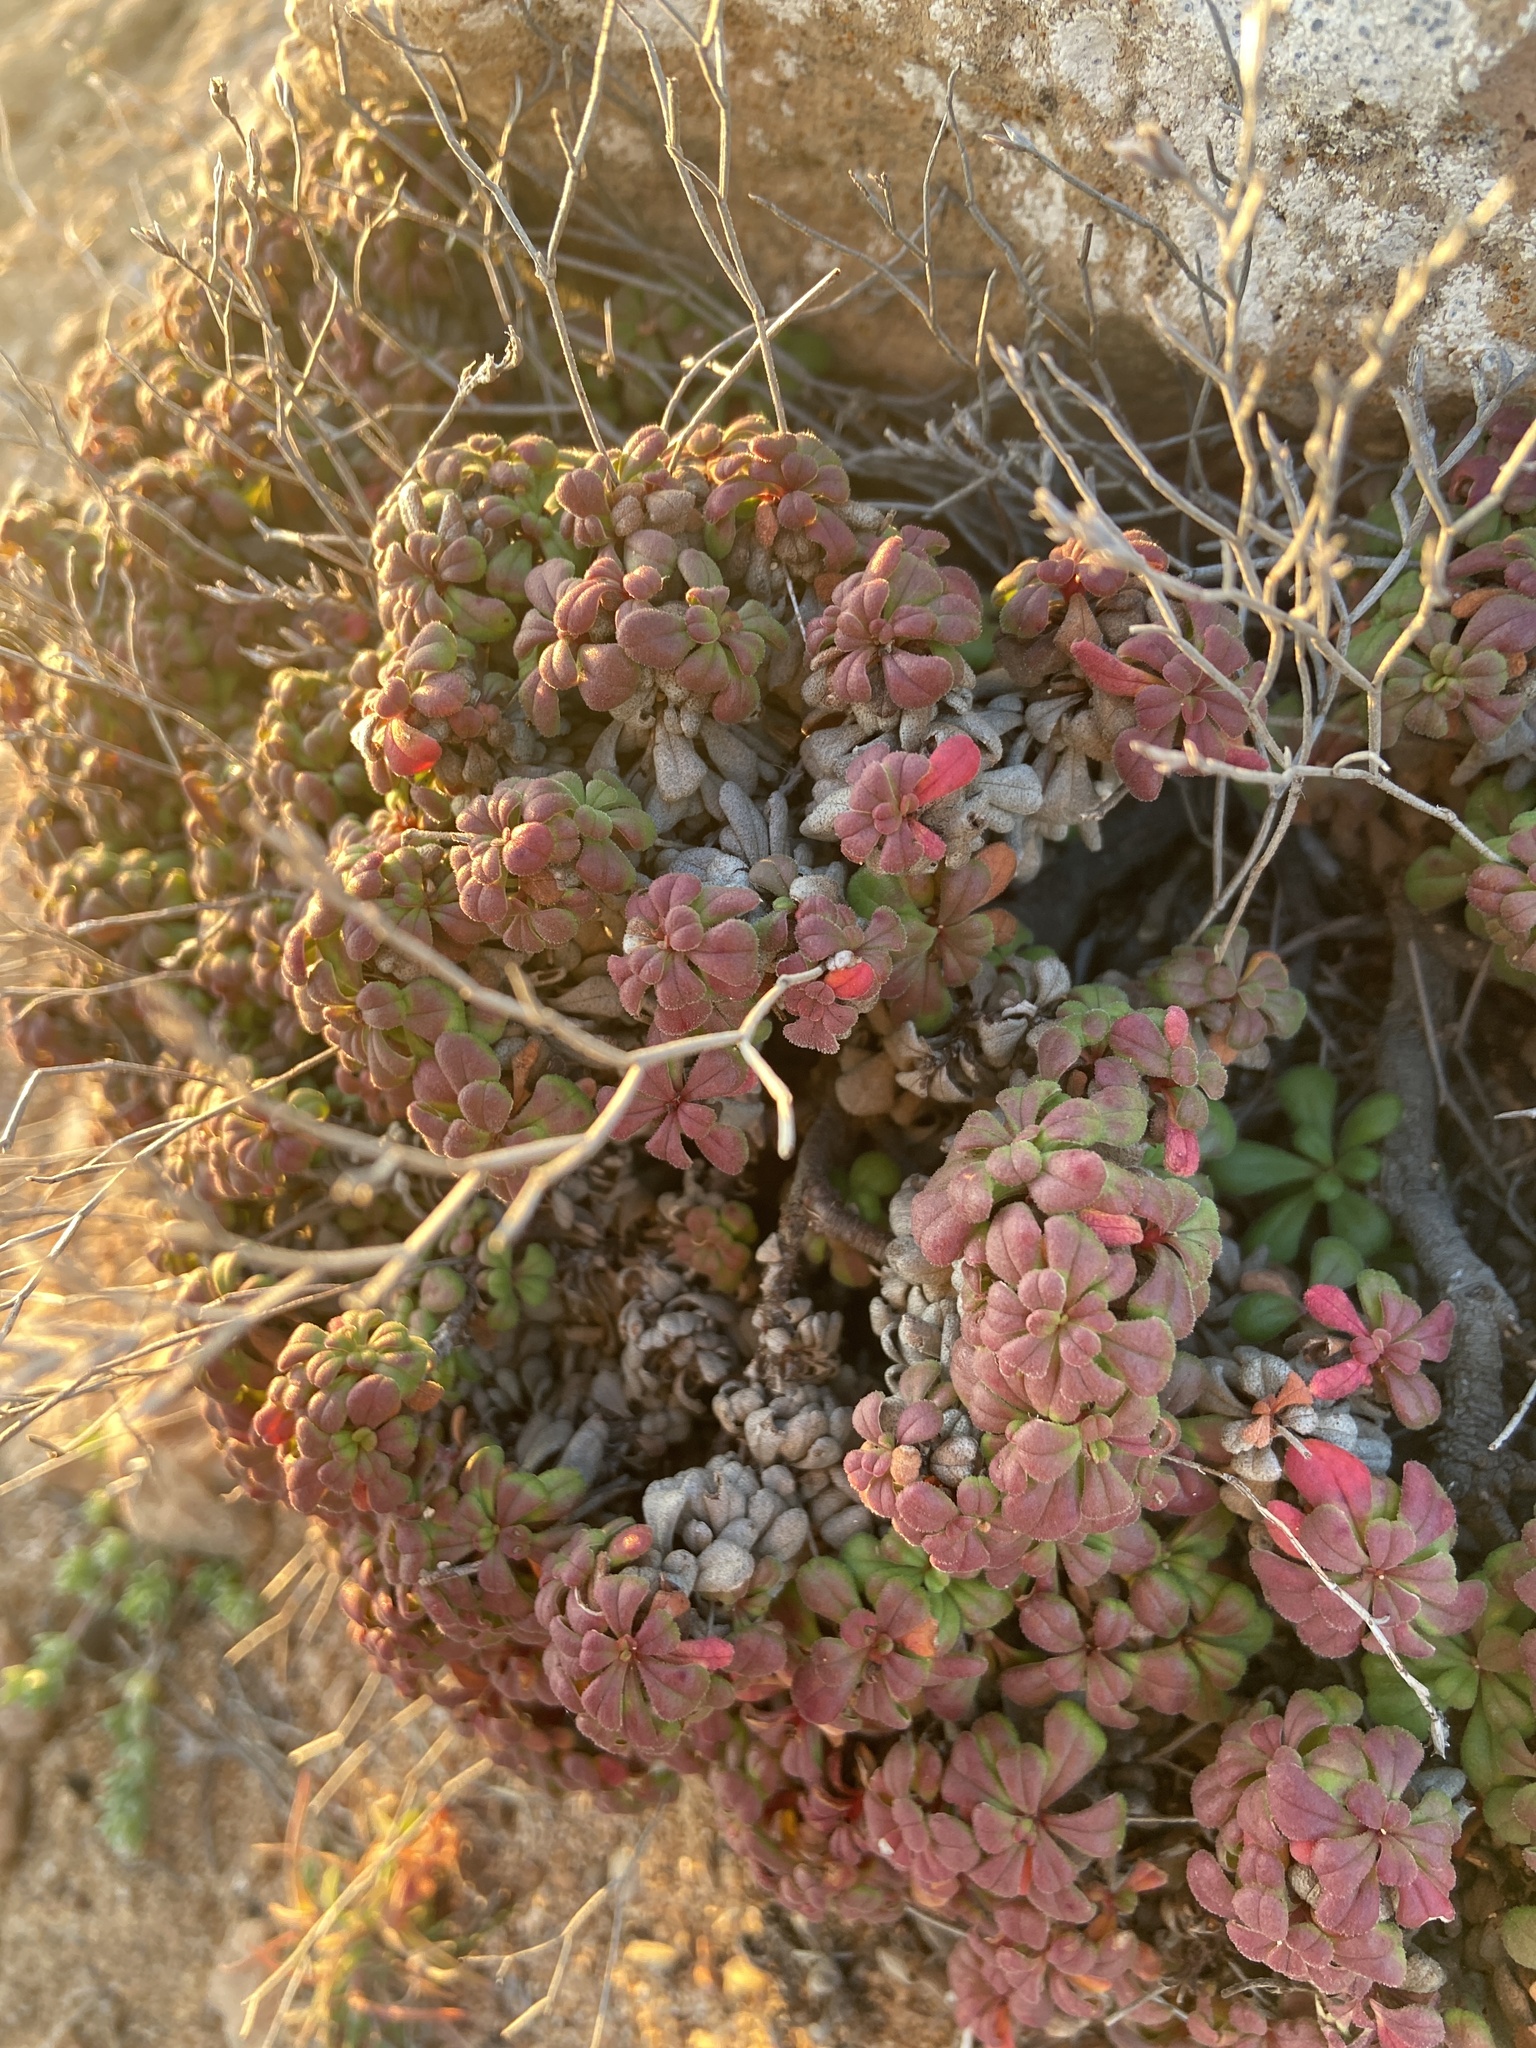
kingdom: Plantae
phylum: Tracheophyta
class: Magnoliopsida
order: Caryophyllales
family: Plumbaginaceae
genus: Limonium
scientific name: Limonium minutum
